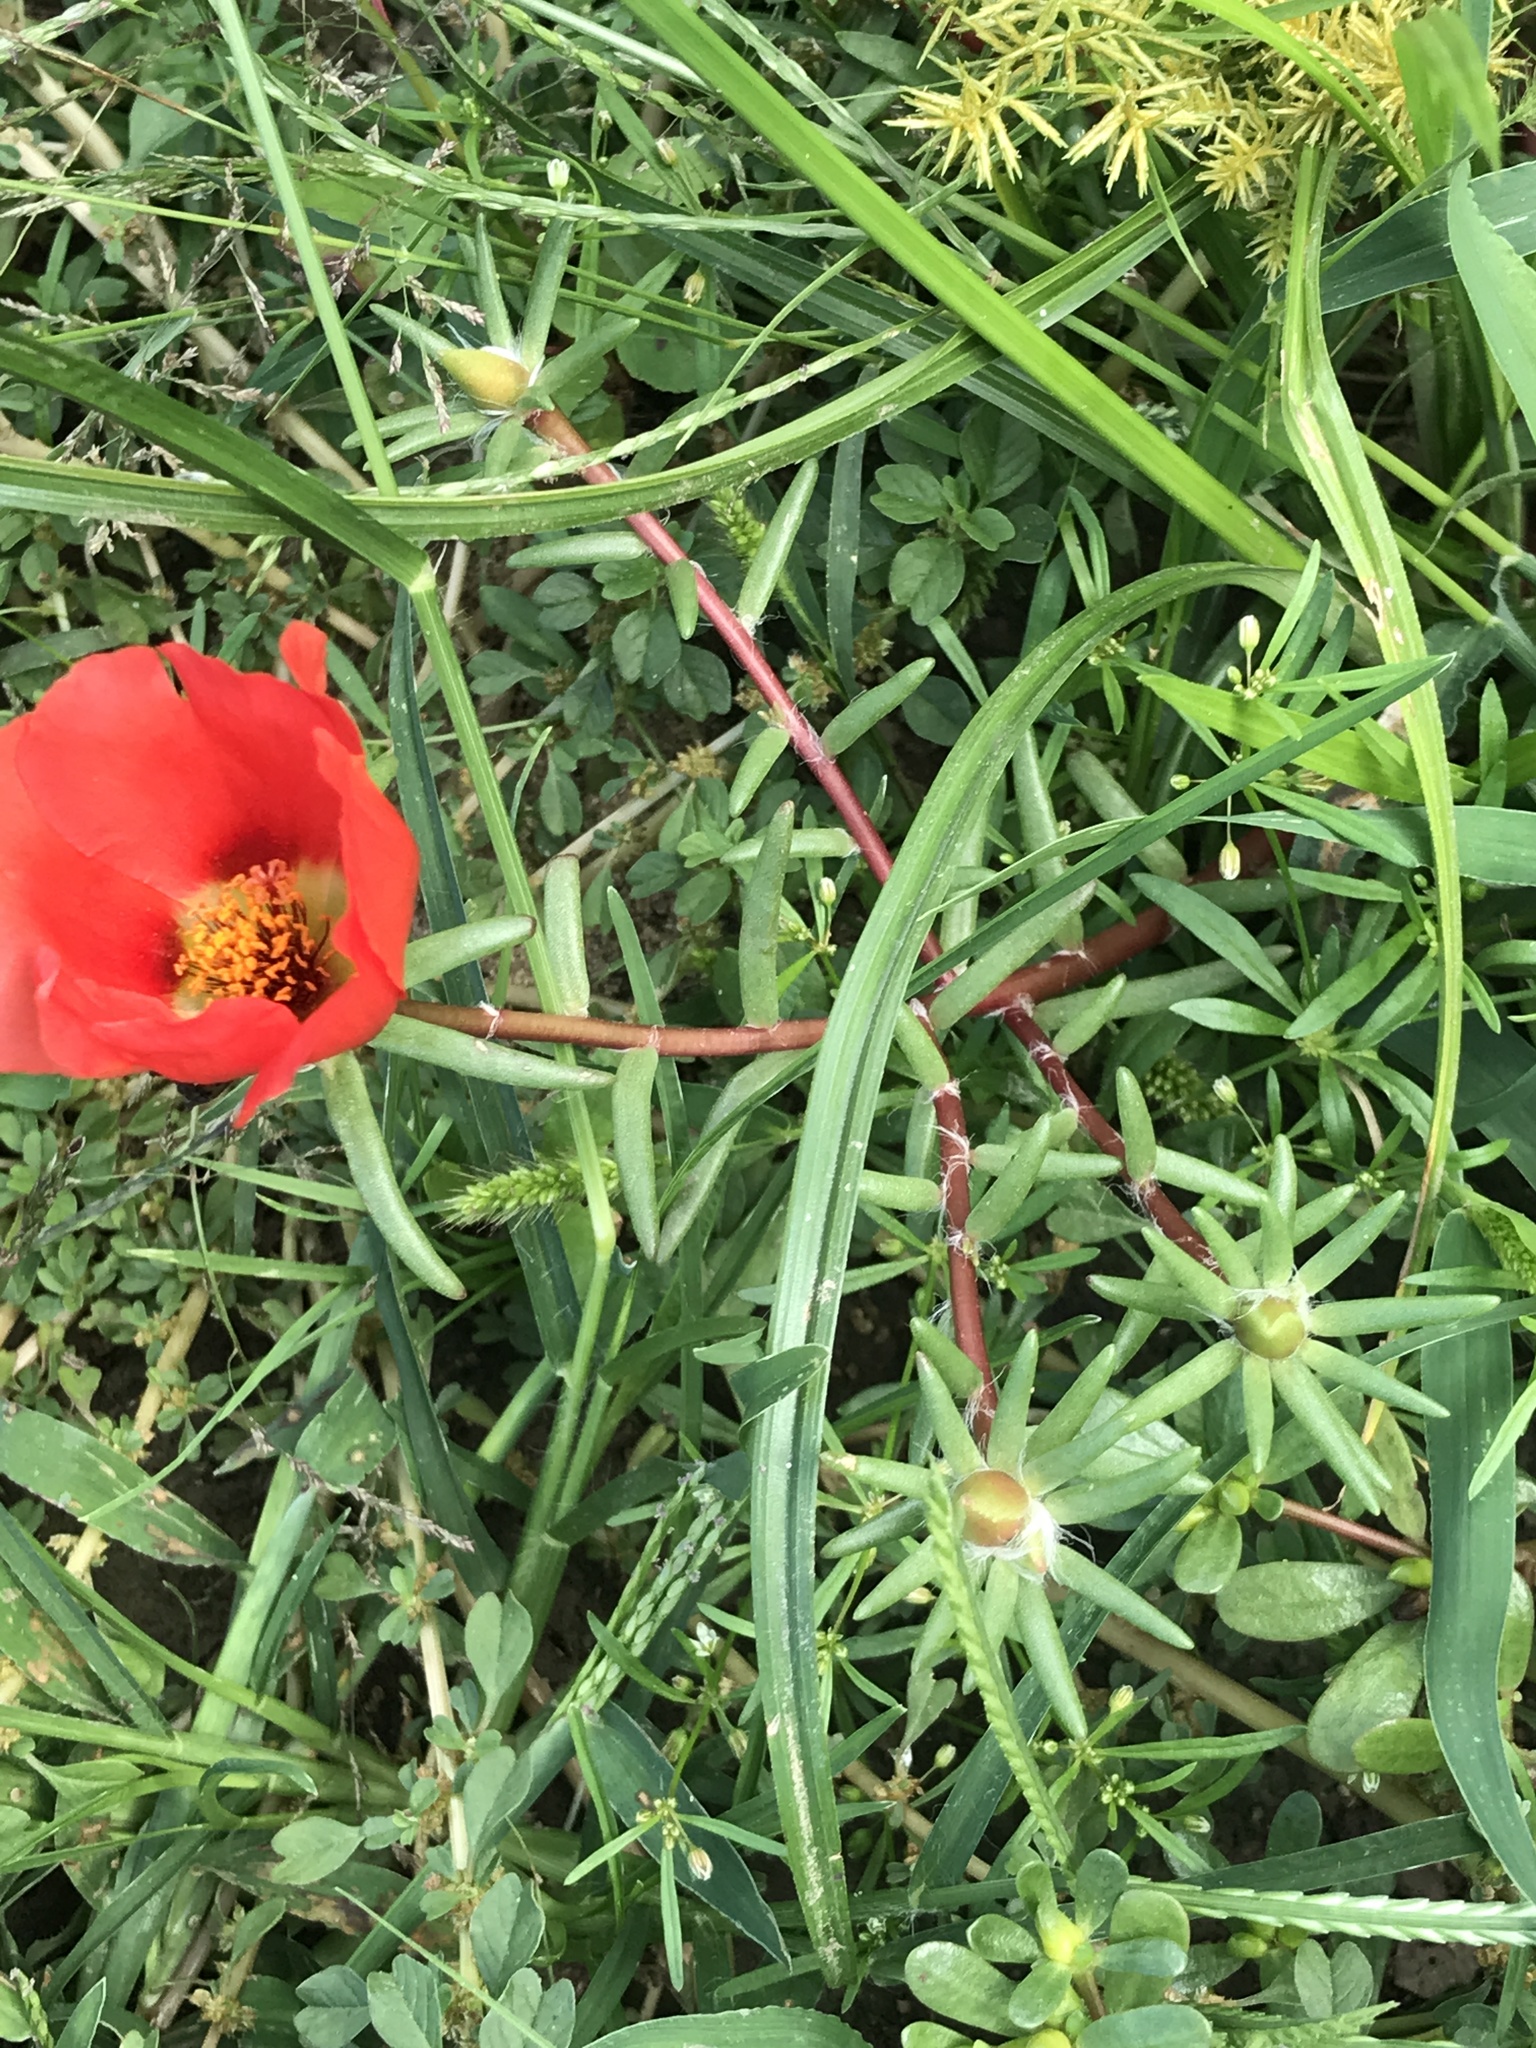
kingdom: Plantae
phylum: Tracheophyta
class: Magnoliopsida
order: Caryophyllales
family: Portulacaceae
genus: Portulaca
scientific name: Portulaca grandiflora
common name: Moss-rose
